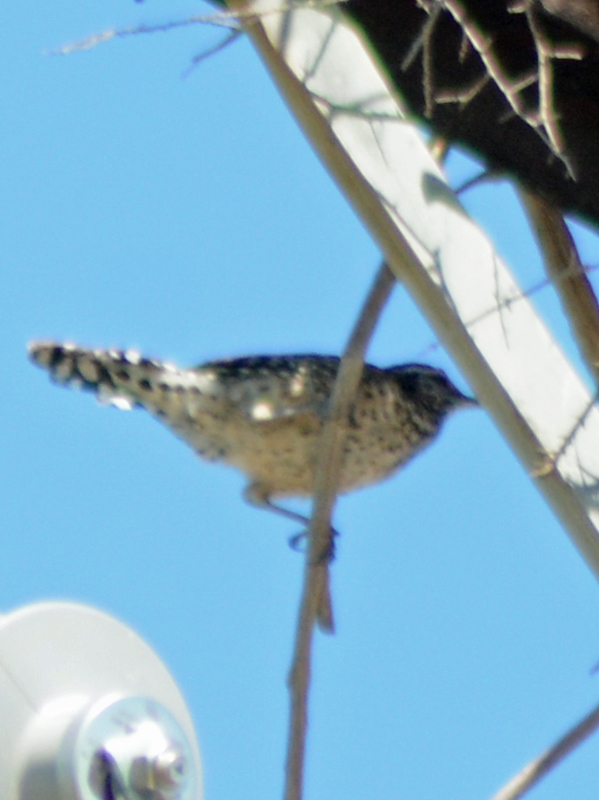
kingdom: Animalia
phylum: Chordata
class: Aves
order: Passeriformes
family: Troglodytidae
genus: Campylorhynchus
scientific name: Campylorhynchus brunneicapillus
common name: Cactus wren
